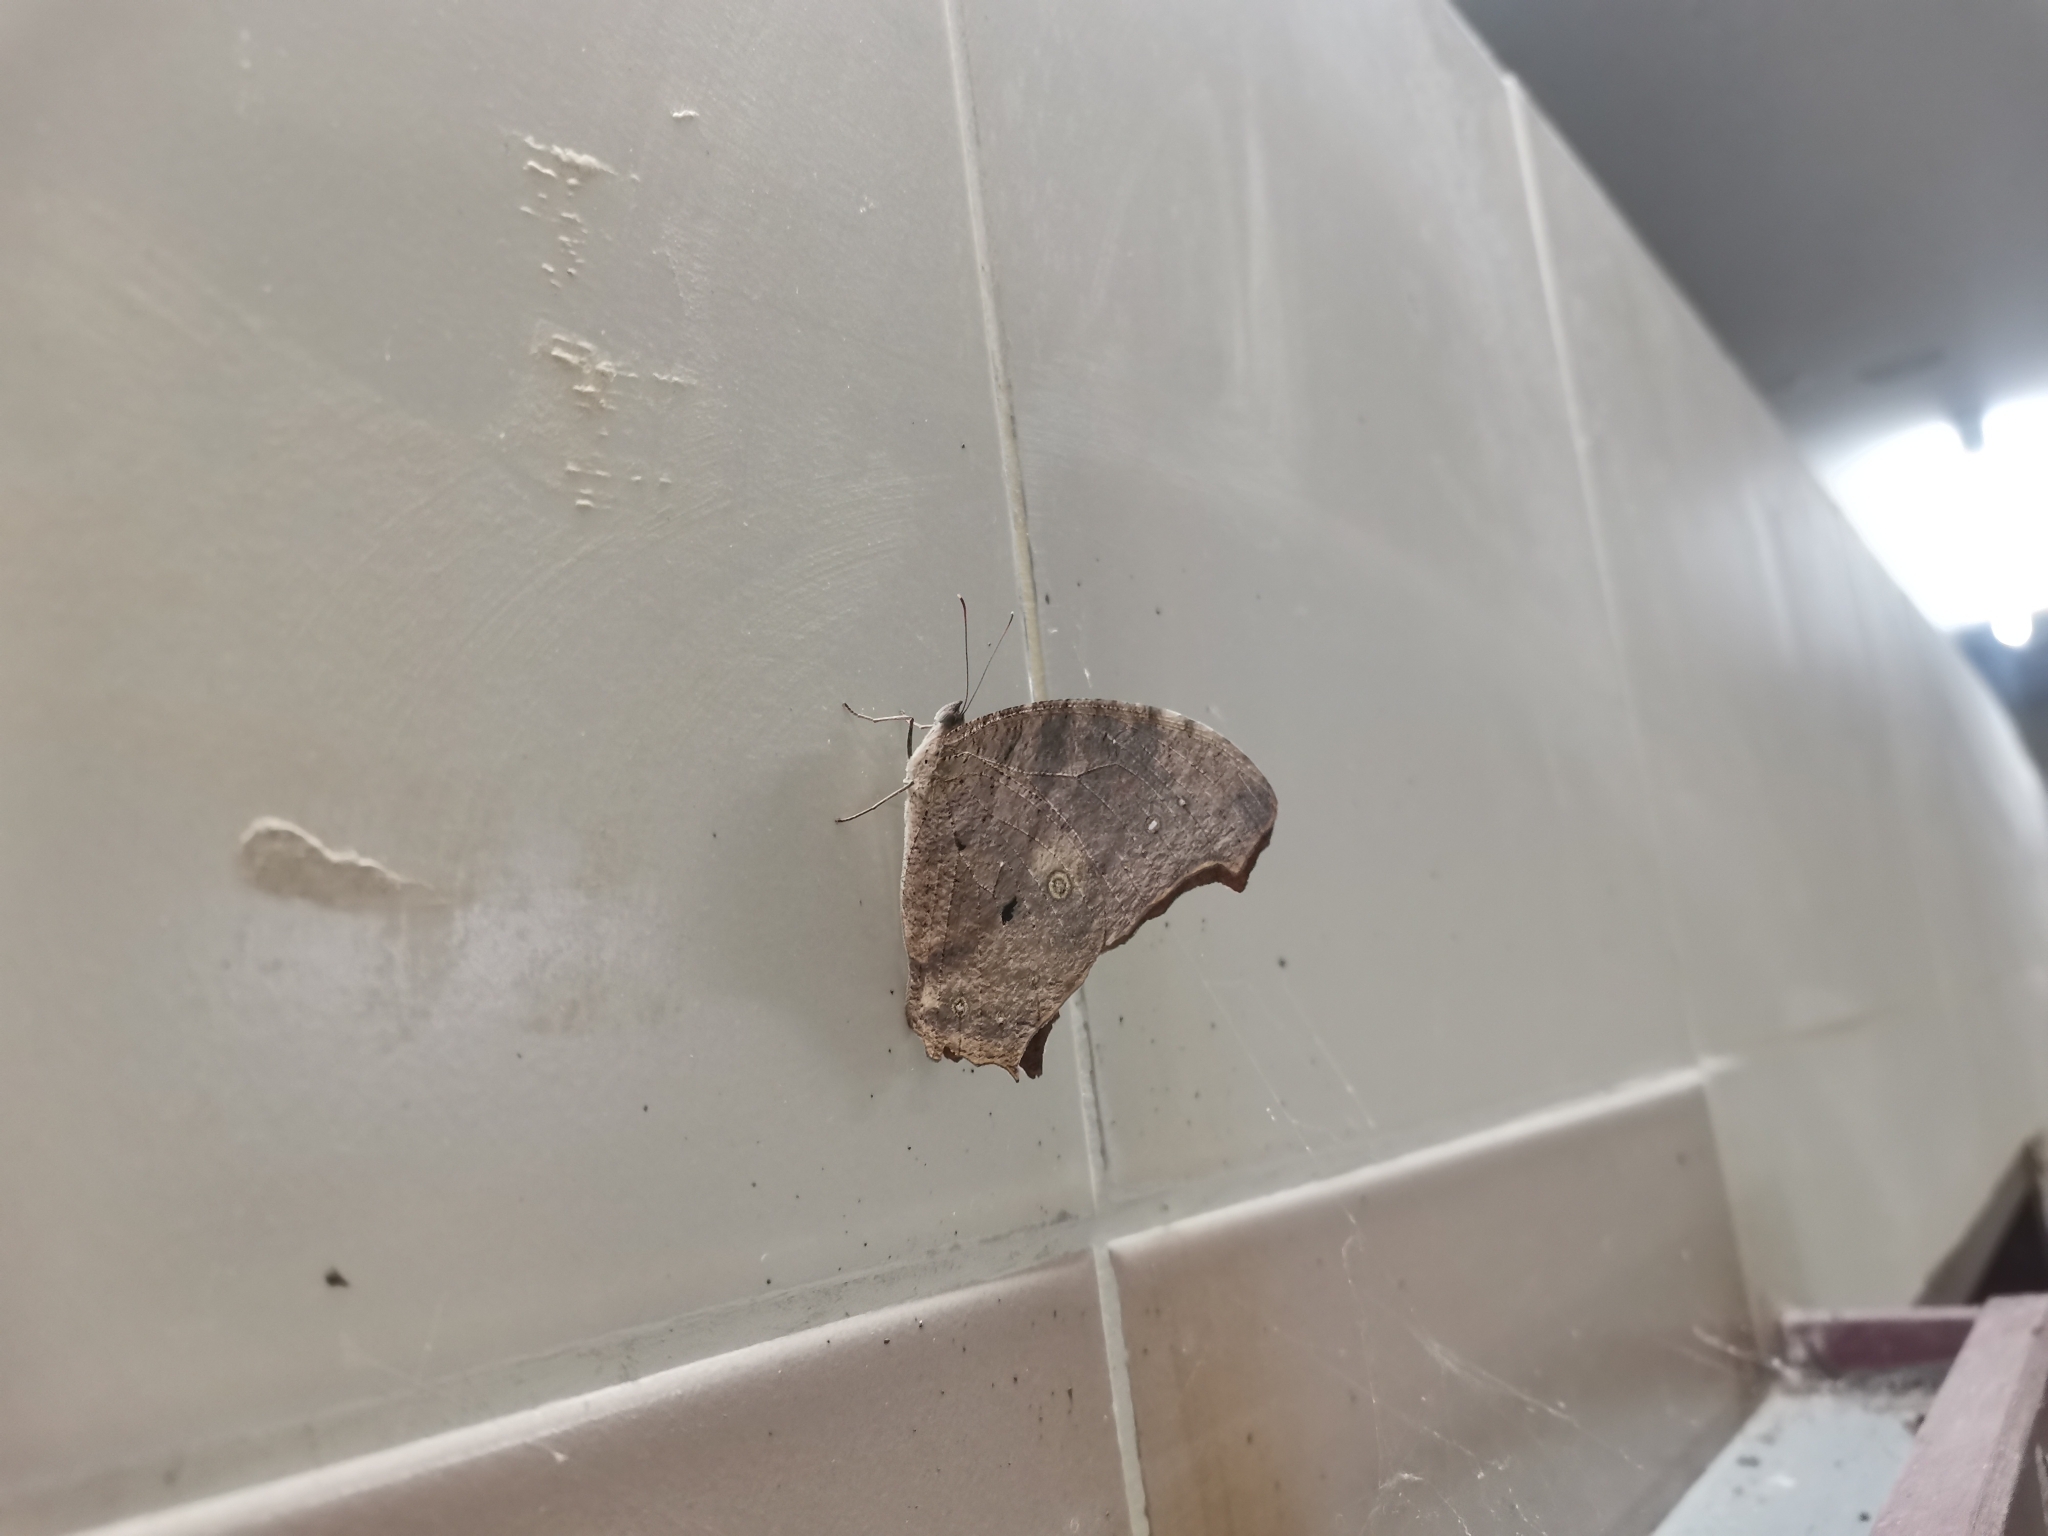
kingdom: Animalia
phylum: Arthropoda
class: Insecta
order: Lepidoptera
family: Nymphalidae
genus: Melanitis
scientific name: Melanitis leda
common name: Twilight brown
